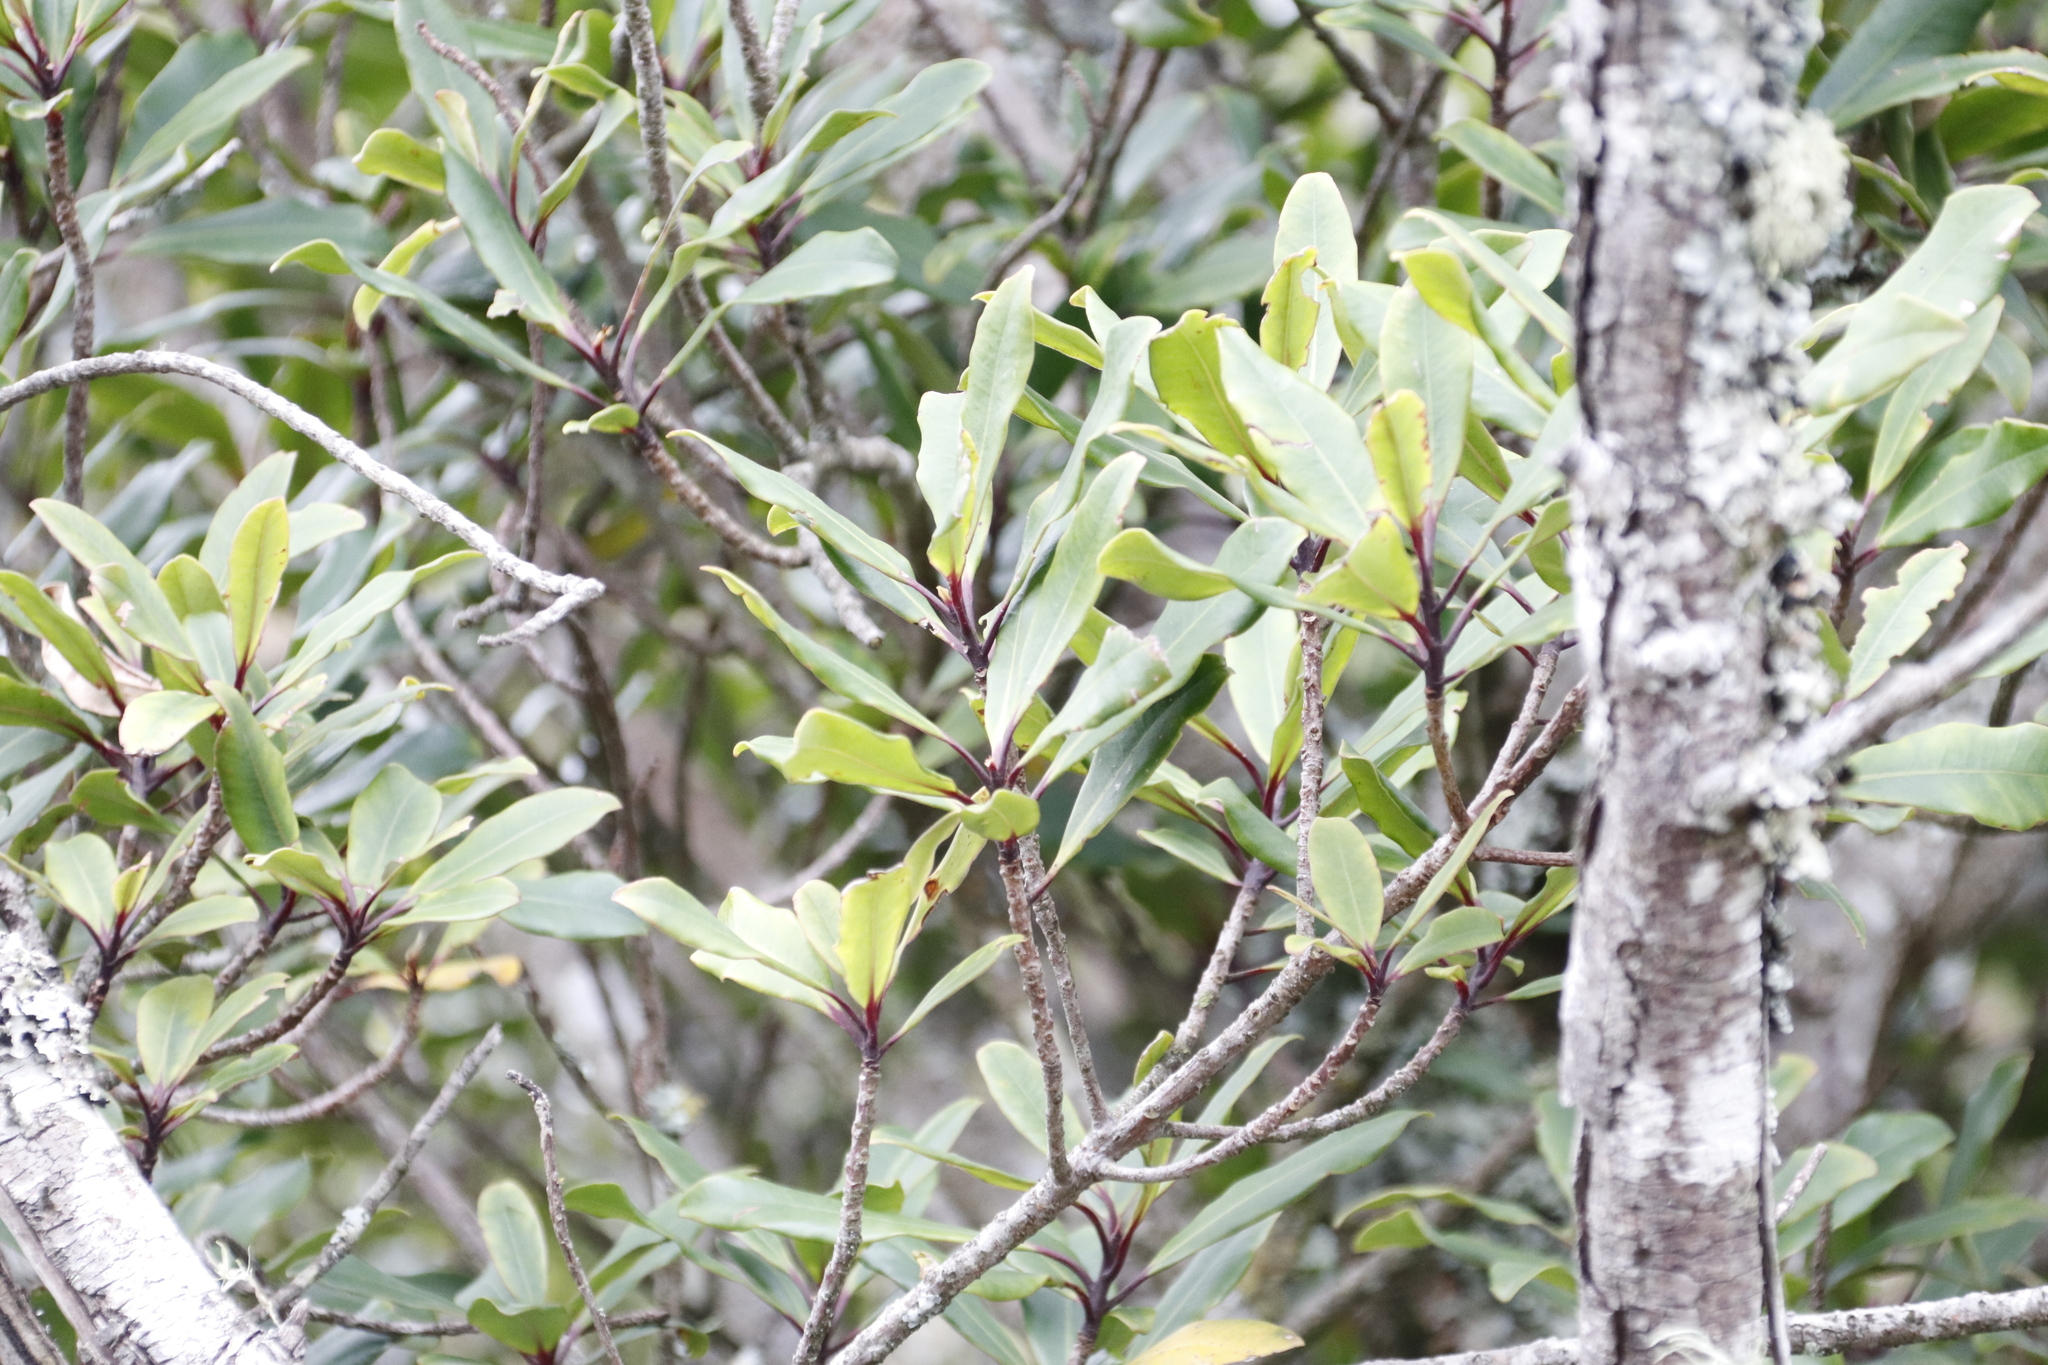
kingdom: Plantae
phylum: Tracheophyta
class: Magnoliopsida
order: Ericales
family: Primulaceae
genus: Myrsine
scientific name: Myrsine melanophloeos
